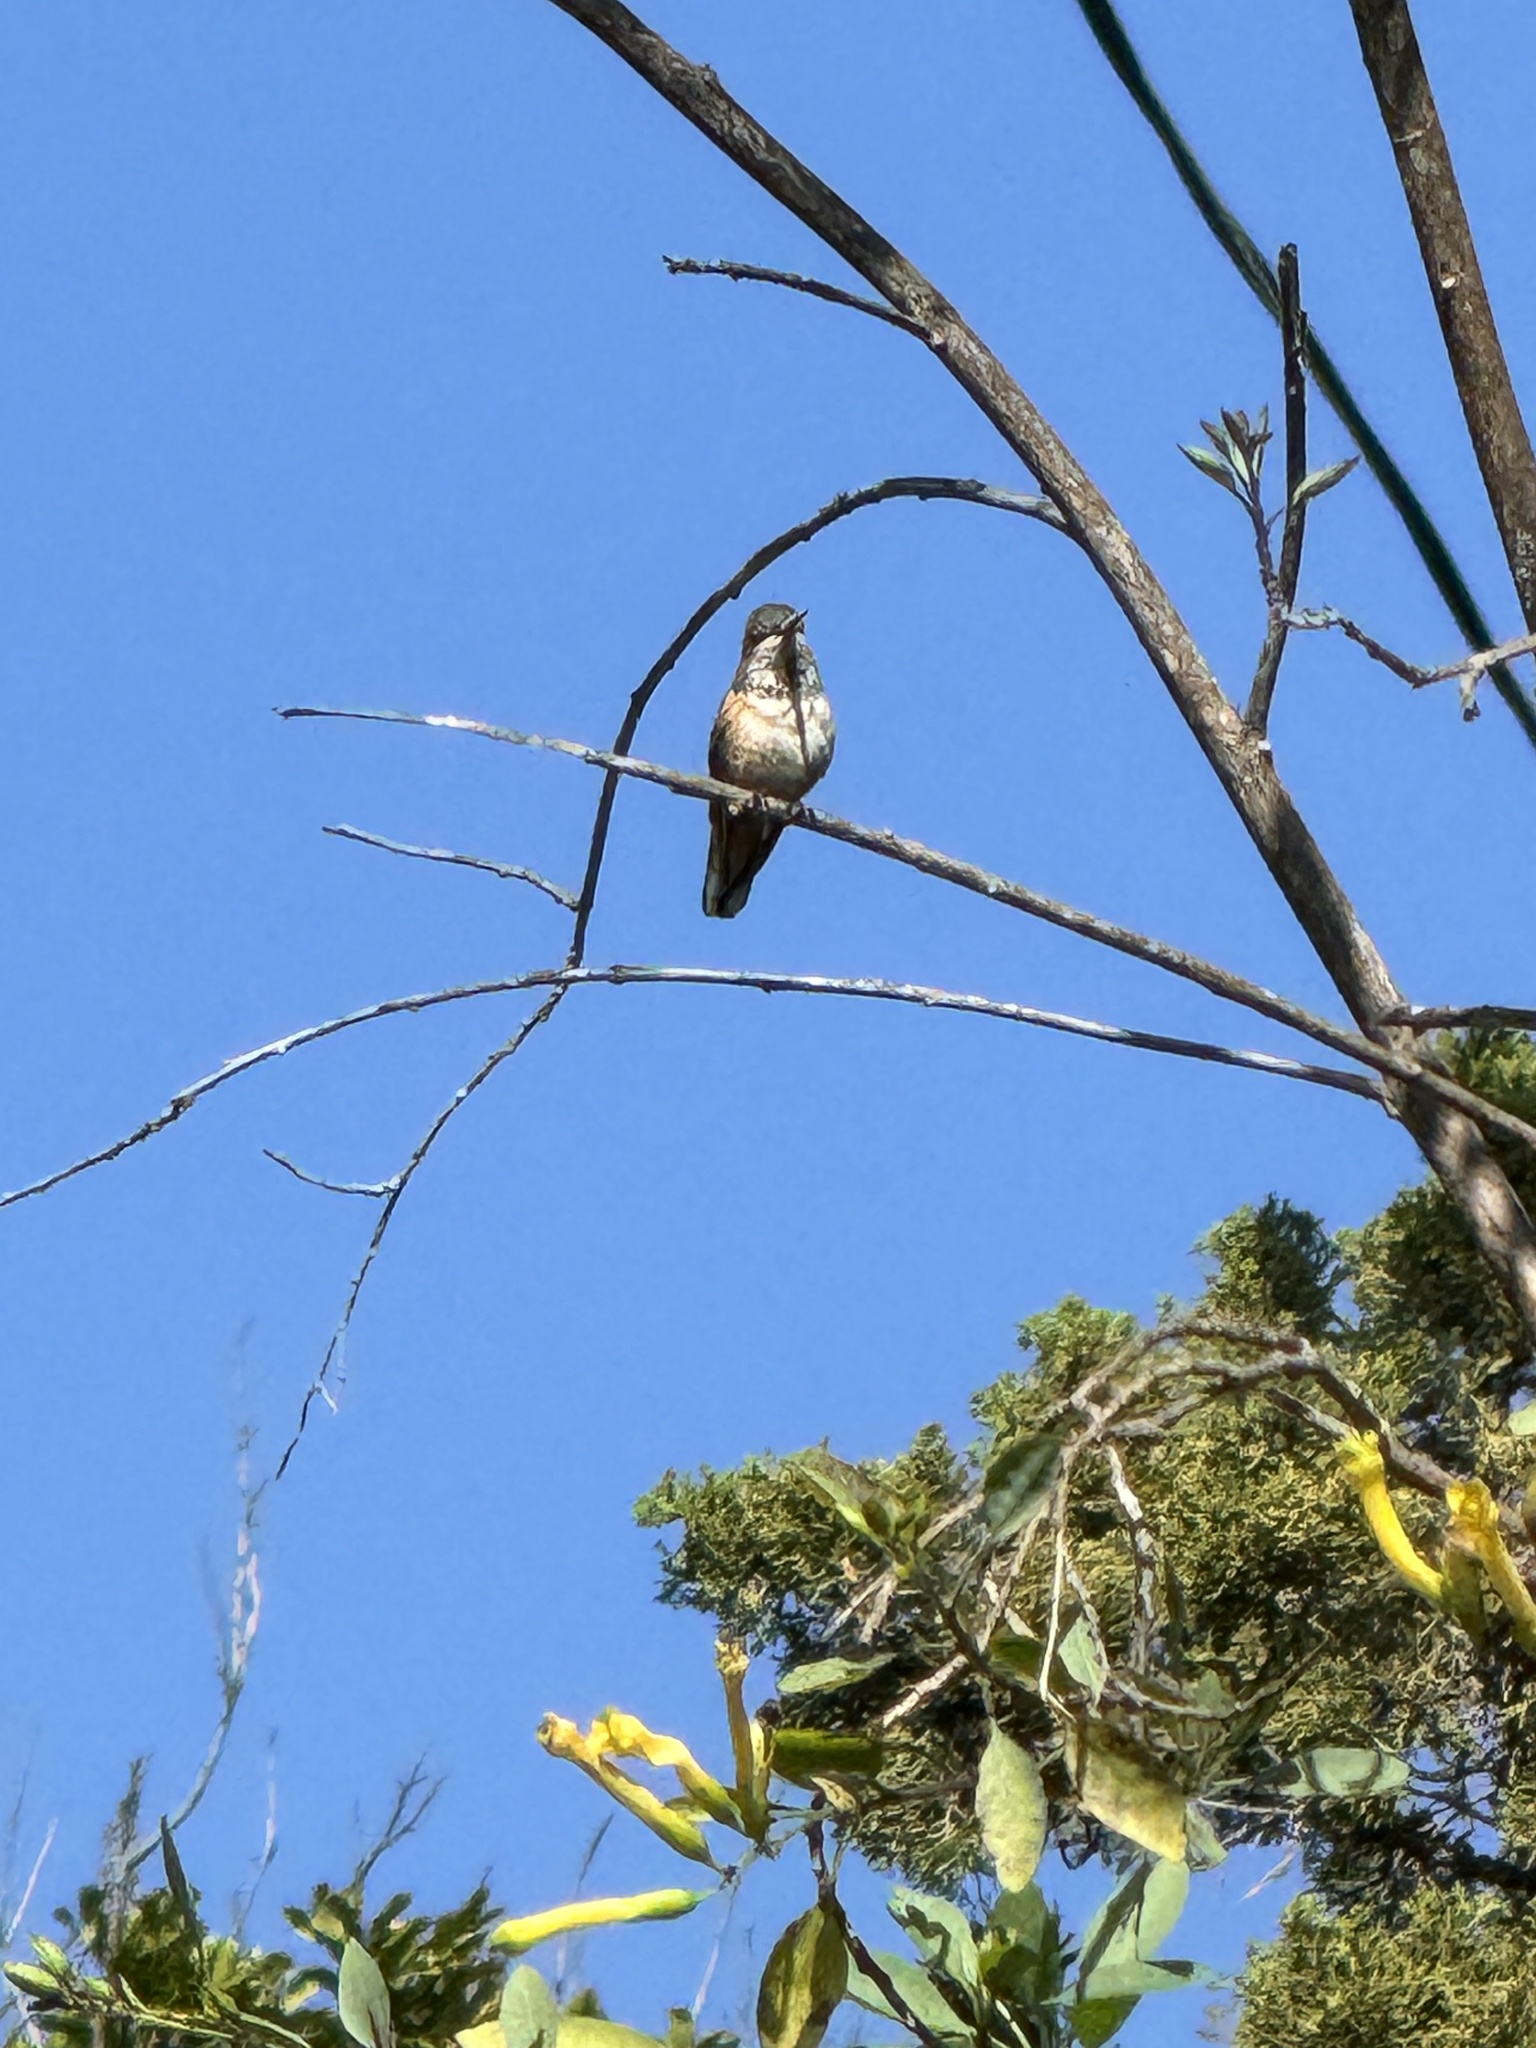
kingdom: Animalia
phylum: Chordata
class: Aves
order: Apodiformes
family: Trochilidae
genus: Selasphorus
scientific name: Selasphorus
